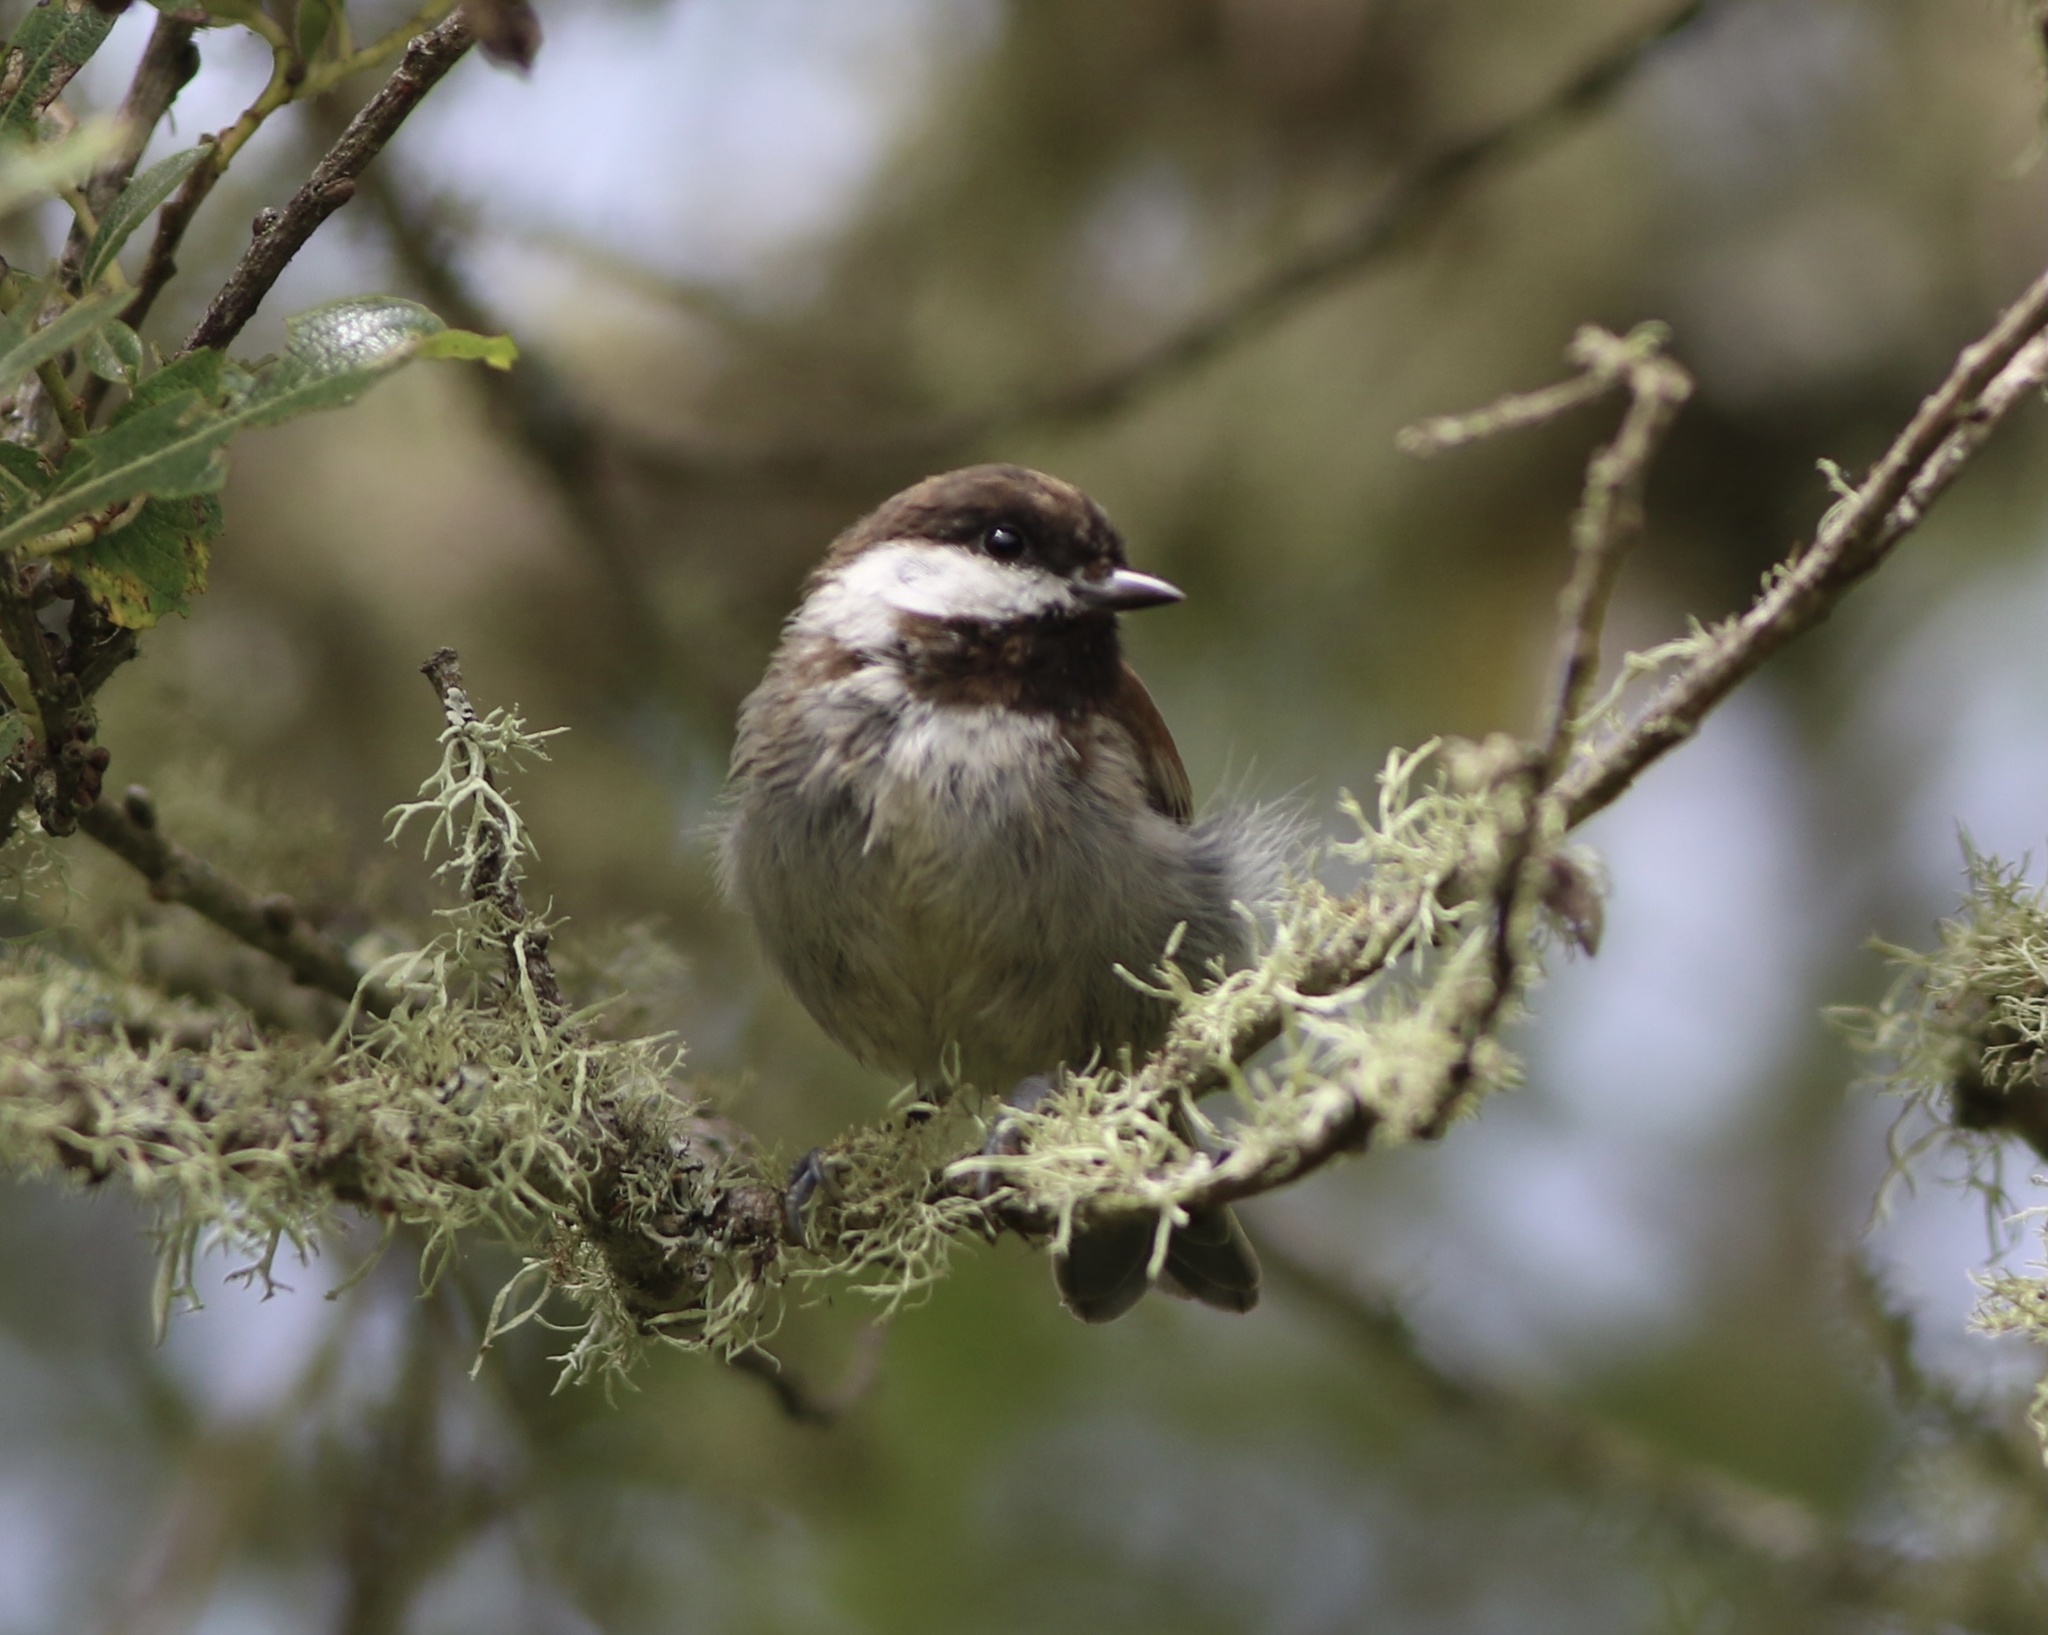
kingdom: Animalia
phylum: Chordata
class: Aves
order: Passeriformes
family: Paridae
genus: Poecile
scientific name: Poecile rufescens
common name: Chestnut-backed chickadee
